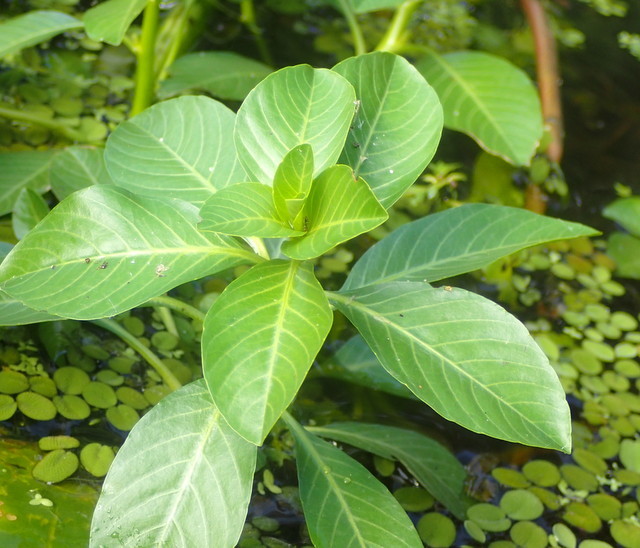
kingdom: Plantae
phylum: Tracheophyta
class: Magnoliopsida
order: Myrtales
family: Onagraceae
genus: Ludwigia
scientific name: Ludwigia octovalvis
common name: Water-primrose
